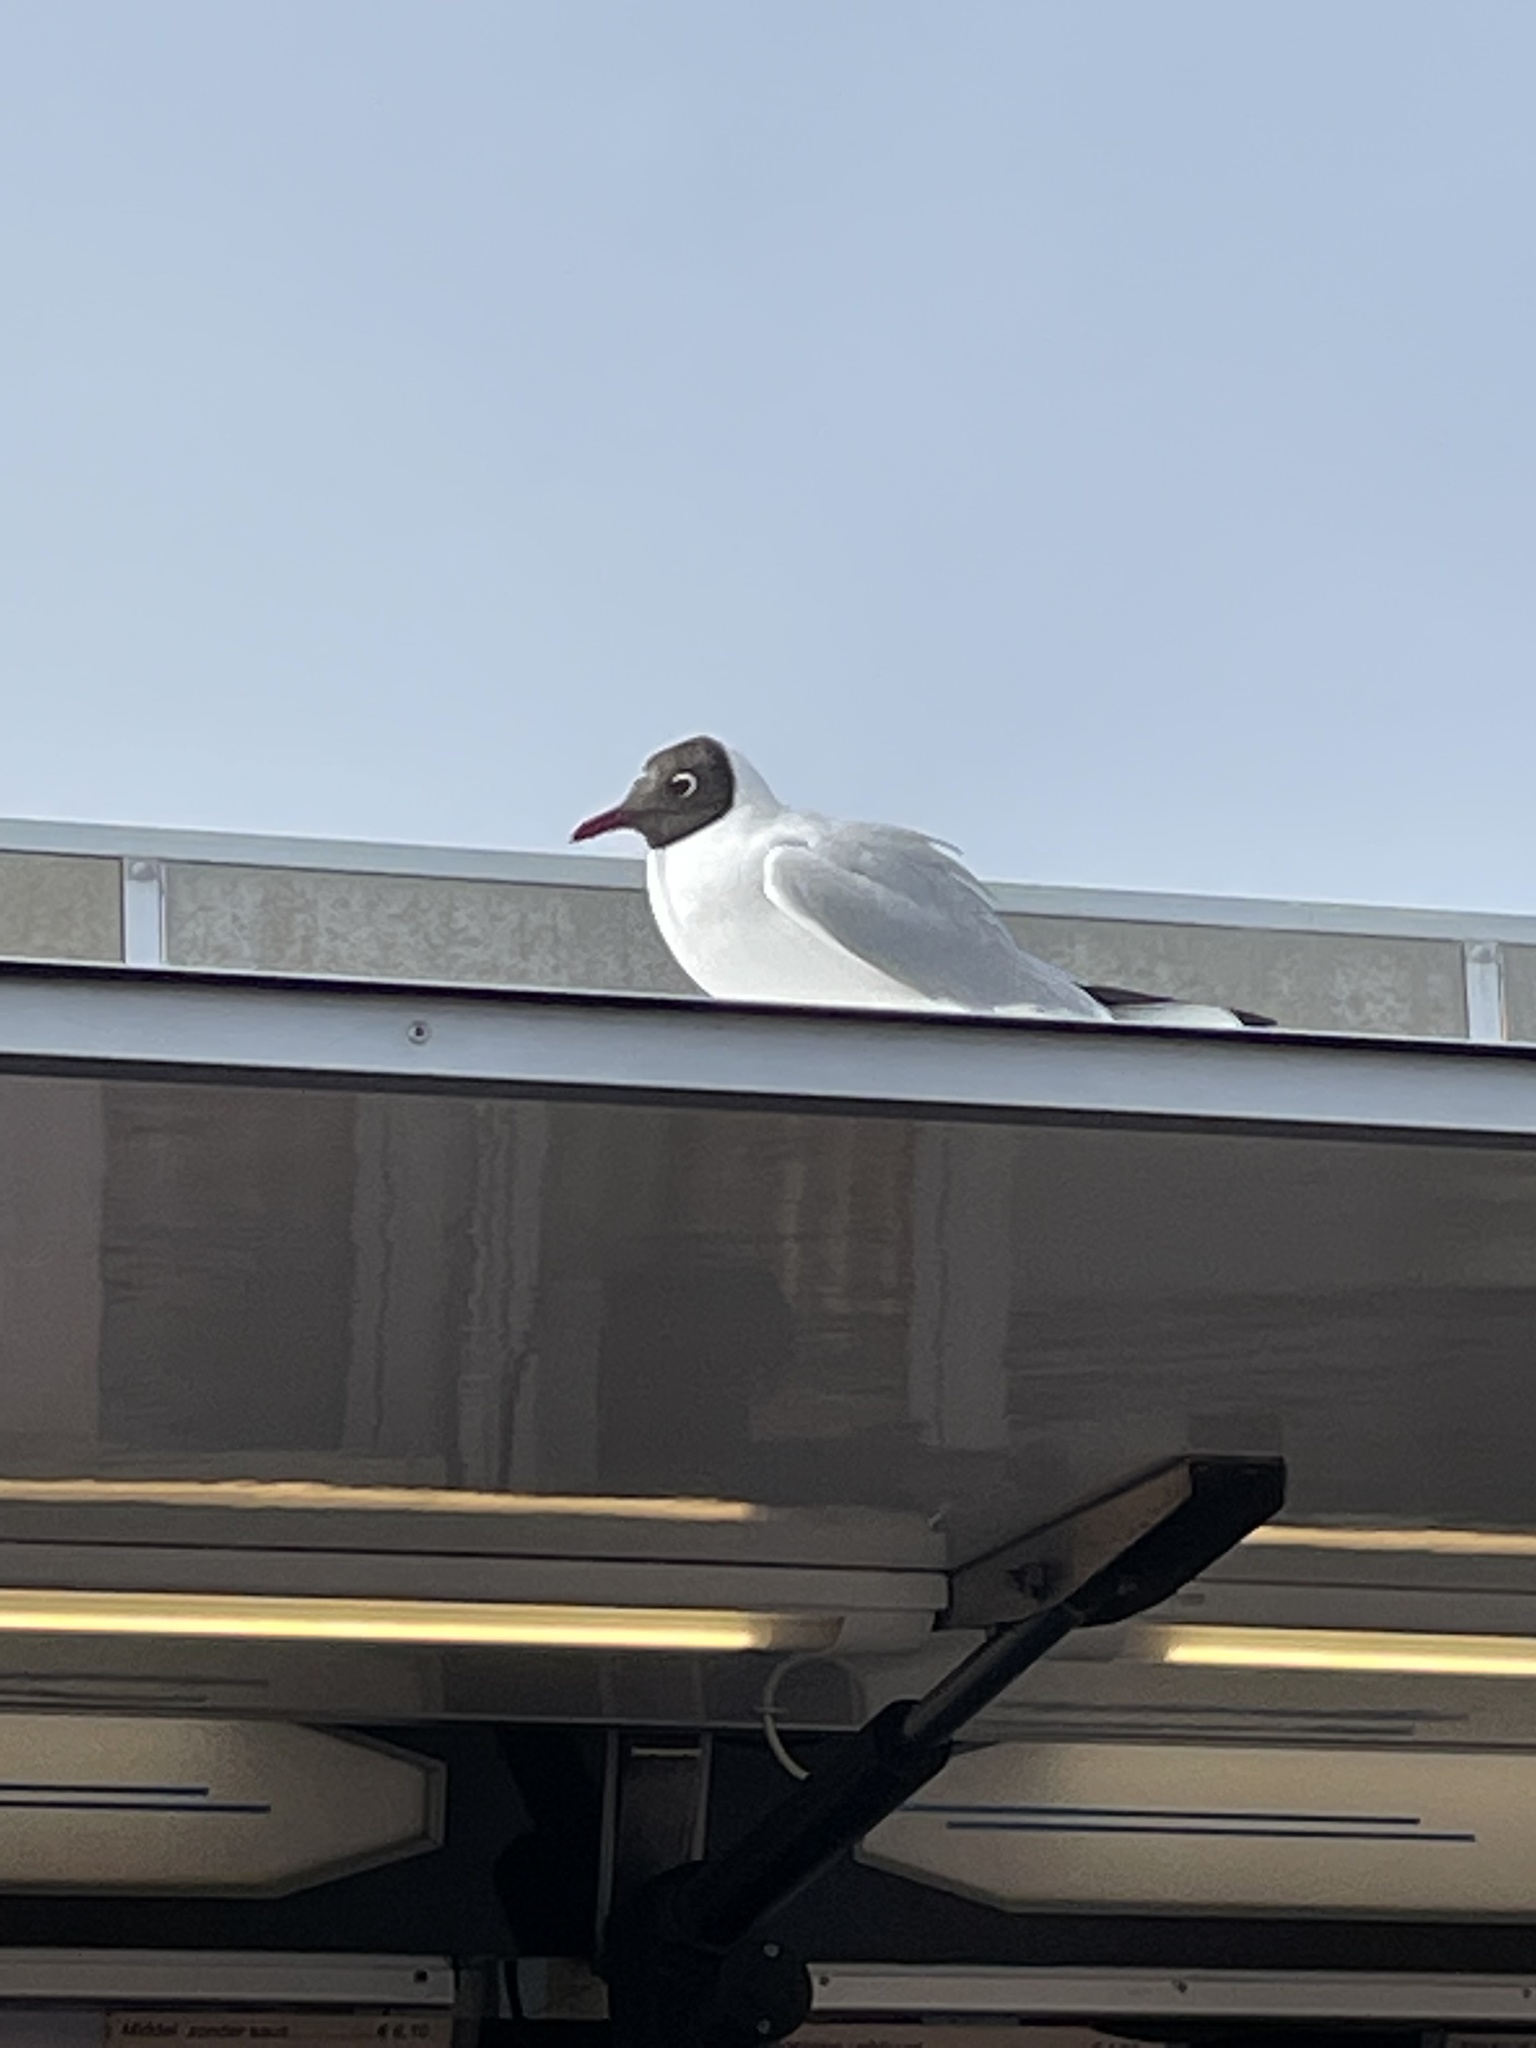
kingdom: Animalia
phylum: Chordata
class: Aves
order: Charadriiformes
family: Laridae
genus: Chroicocephalus
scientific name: Chroicocephalus ridibundus
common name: Black-headed gull
